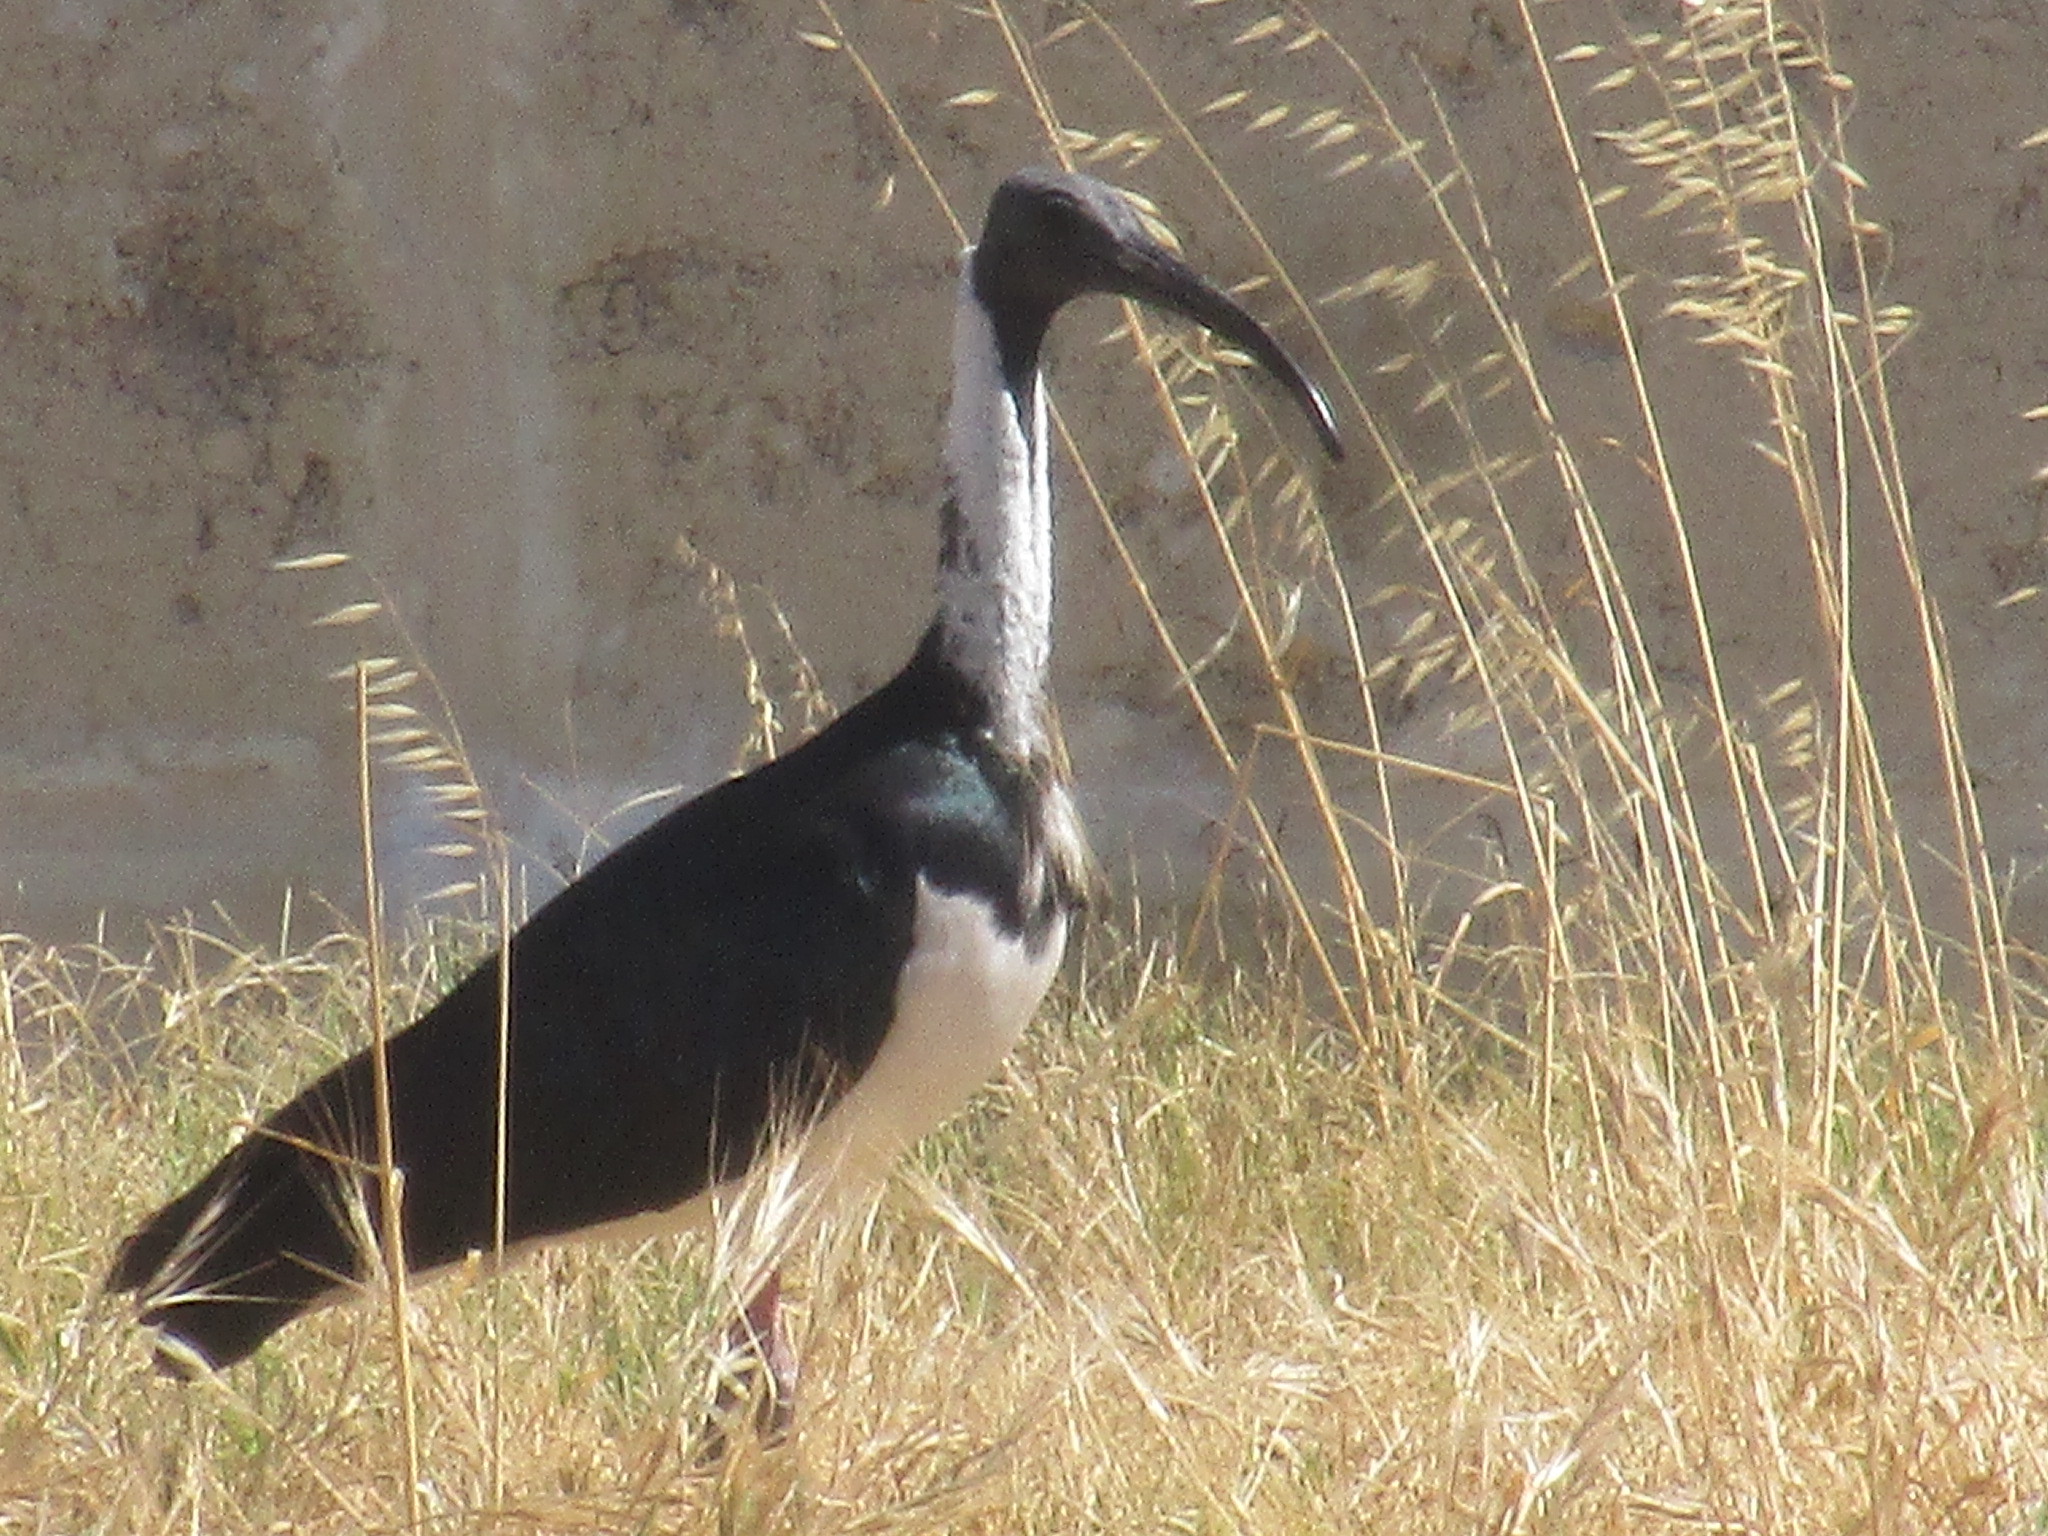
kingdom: Animalia
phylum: Chordata
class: Aves
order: Pelecaniformes
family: Threskiornithidae
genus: Threskiornis
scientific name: Threskiornis spinicollis
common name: Straw-necked ibis
